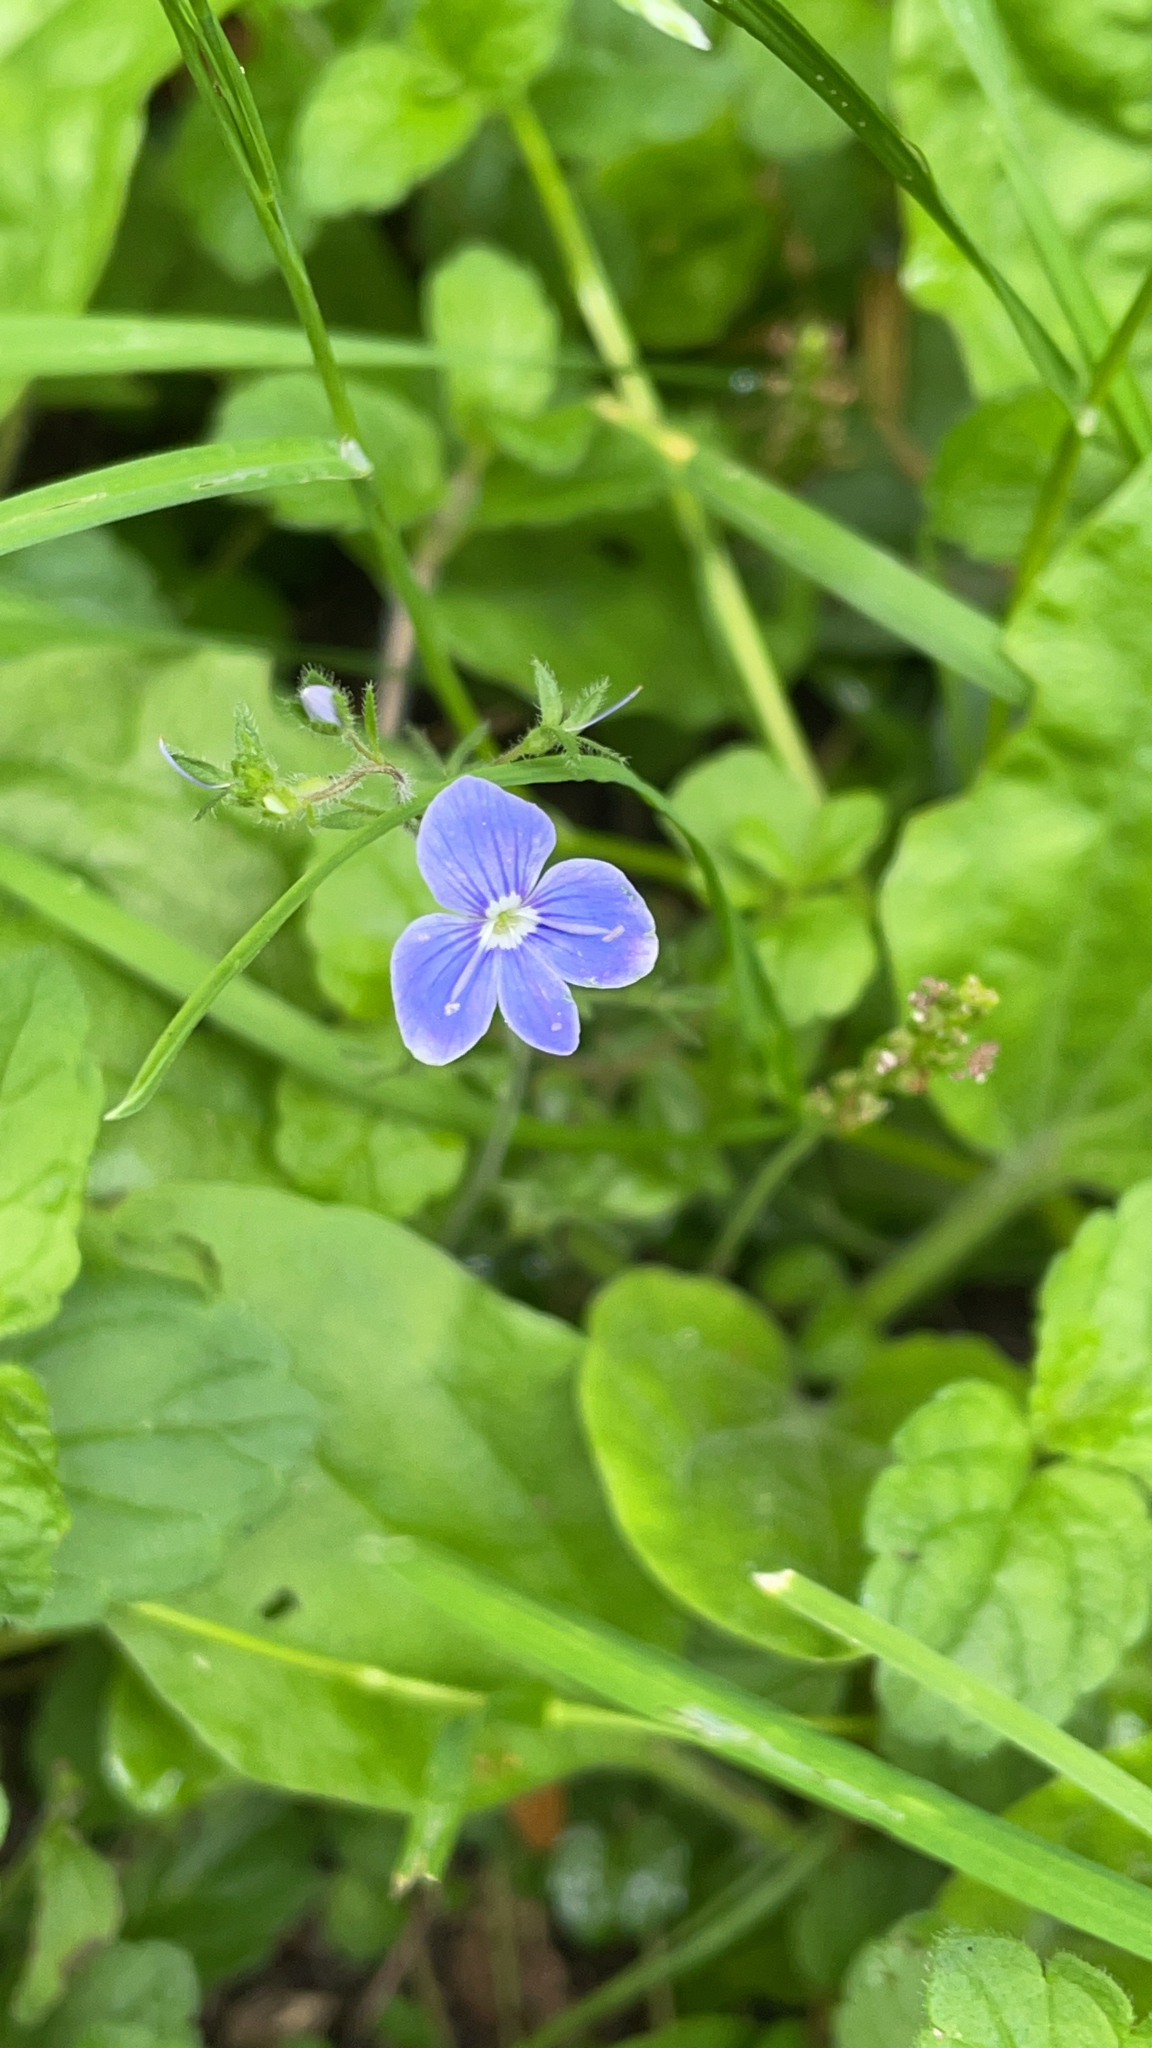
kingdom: Plantae
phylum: Tracheophyta
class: Magnoliopsida
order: Lamiales
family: Plantaginaceae
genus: Veronica
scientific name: Veronica chamaedrys
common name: Germander speedwell
